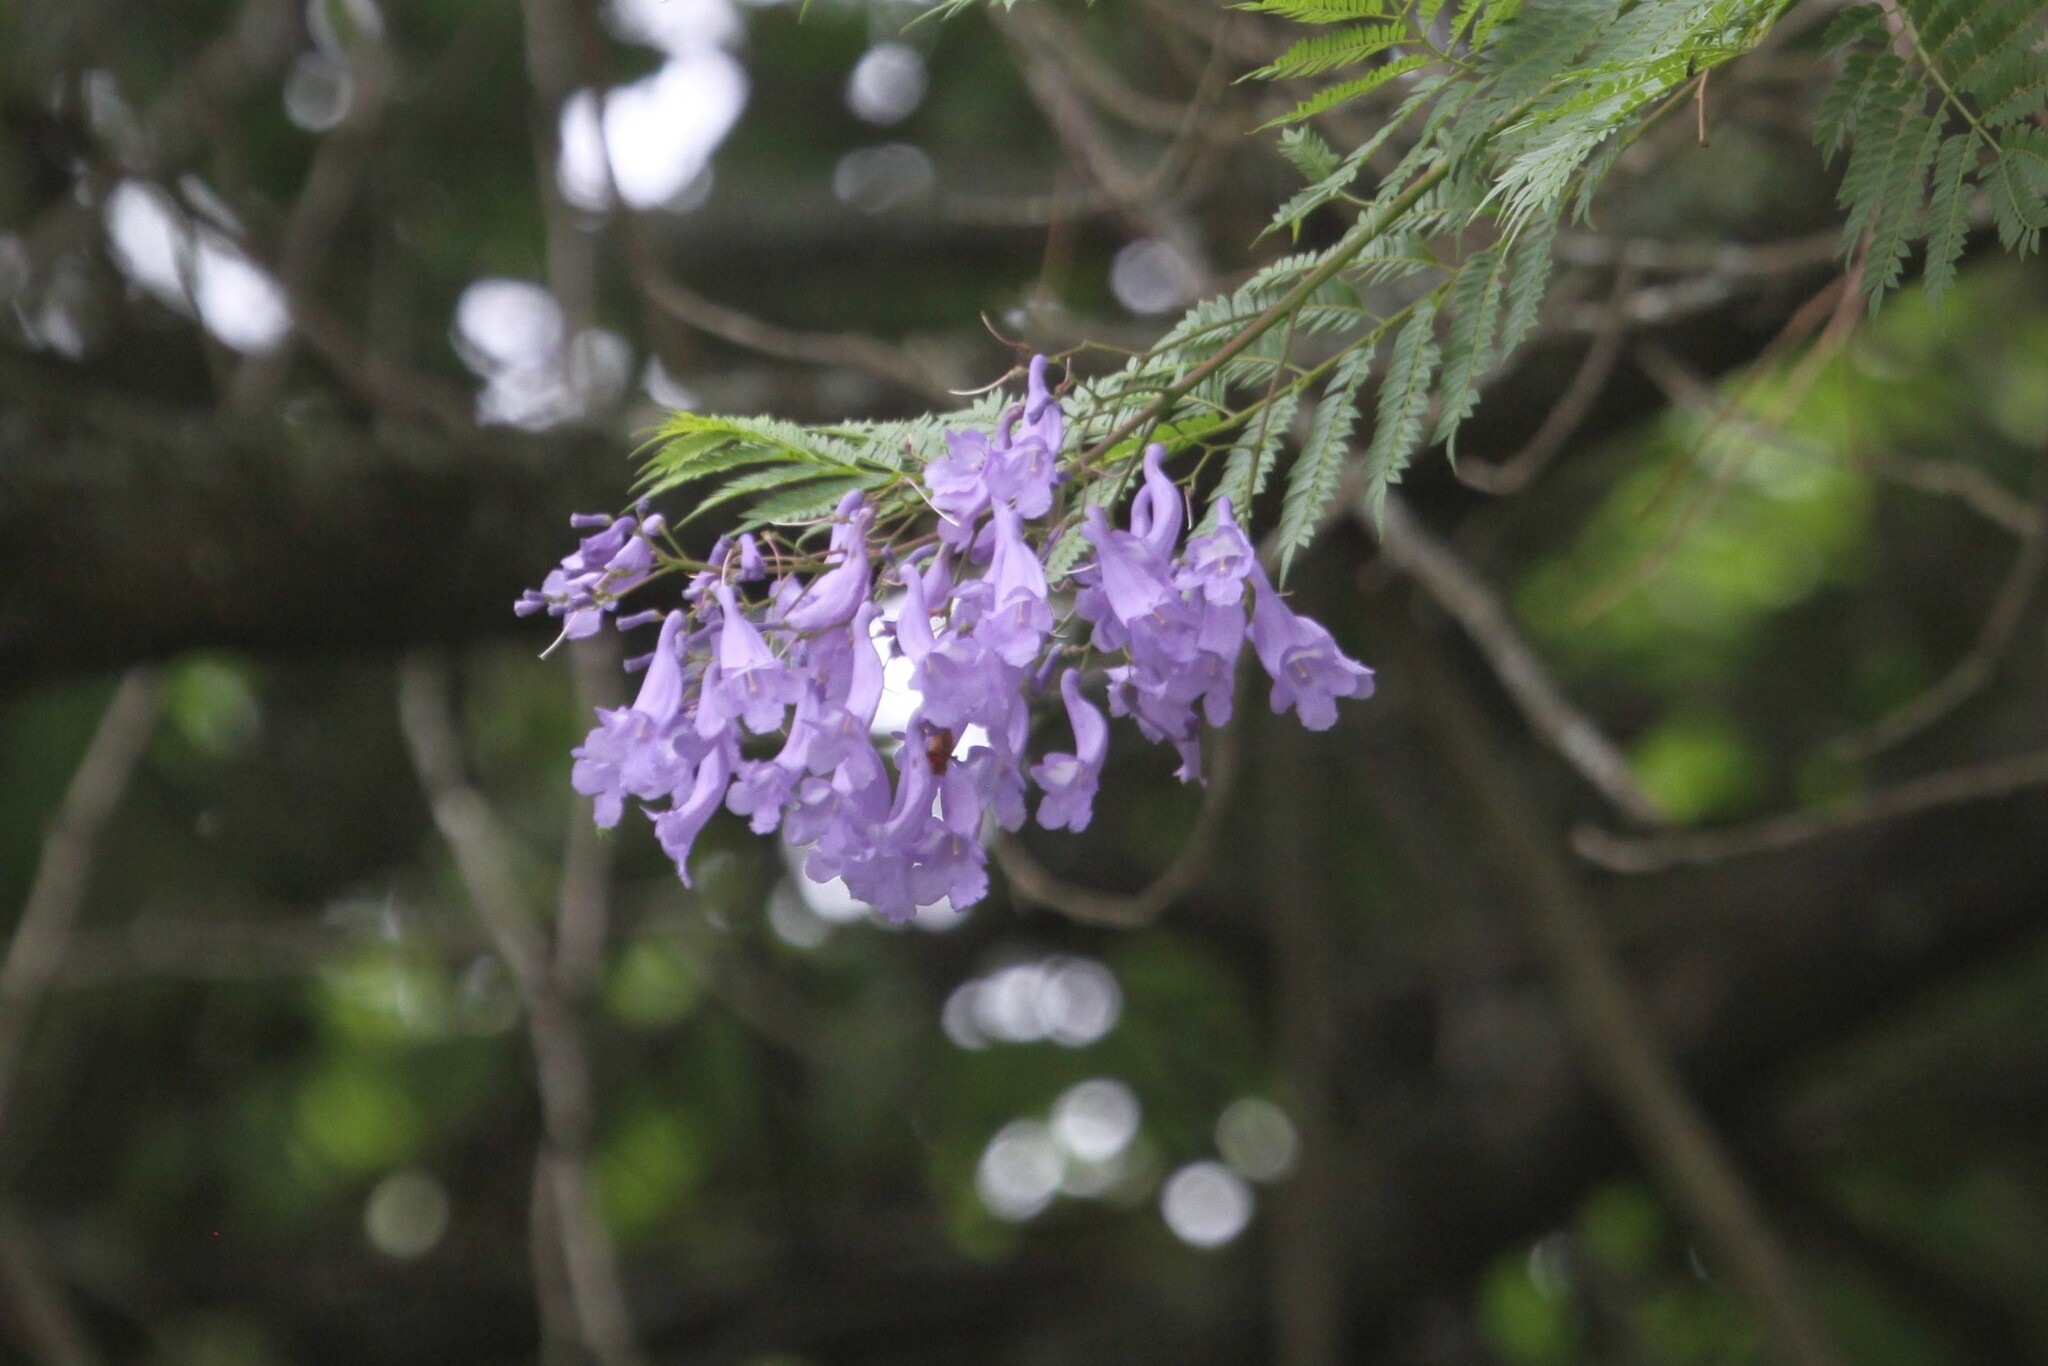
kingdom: Plantae
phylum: Tracheophyta
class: Magnoliopsida
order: Lamiales
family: Bignoniaceae
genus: Jacaranda
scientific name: Jacaranda mimosifolia
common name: Black poui
